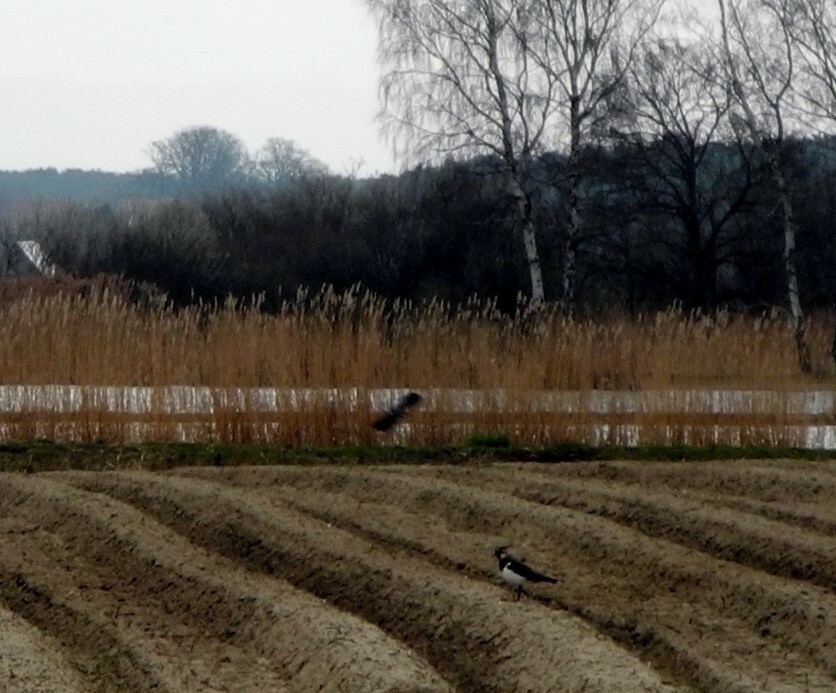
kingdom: Animalia
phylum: Chordata
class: Aves
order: Charadriiformes
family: Charadriidae
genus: Vanellus
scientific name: Vanellus vanellus
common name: Northern lapwing
